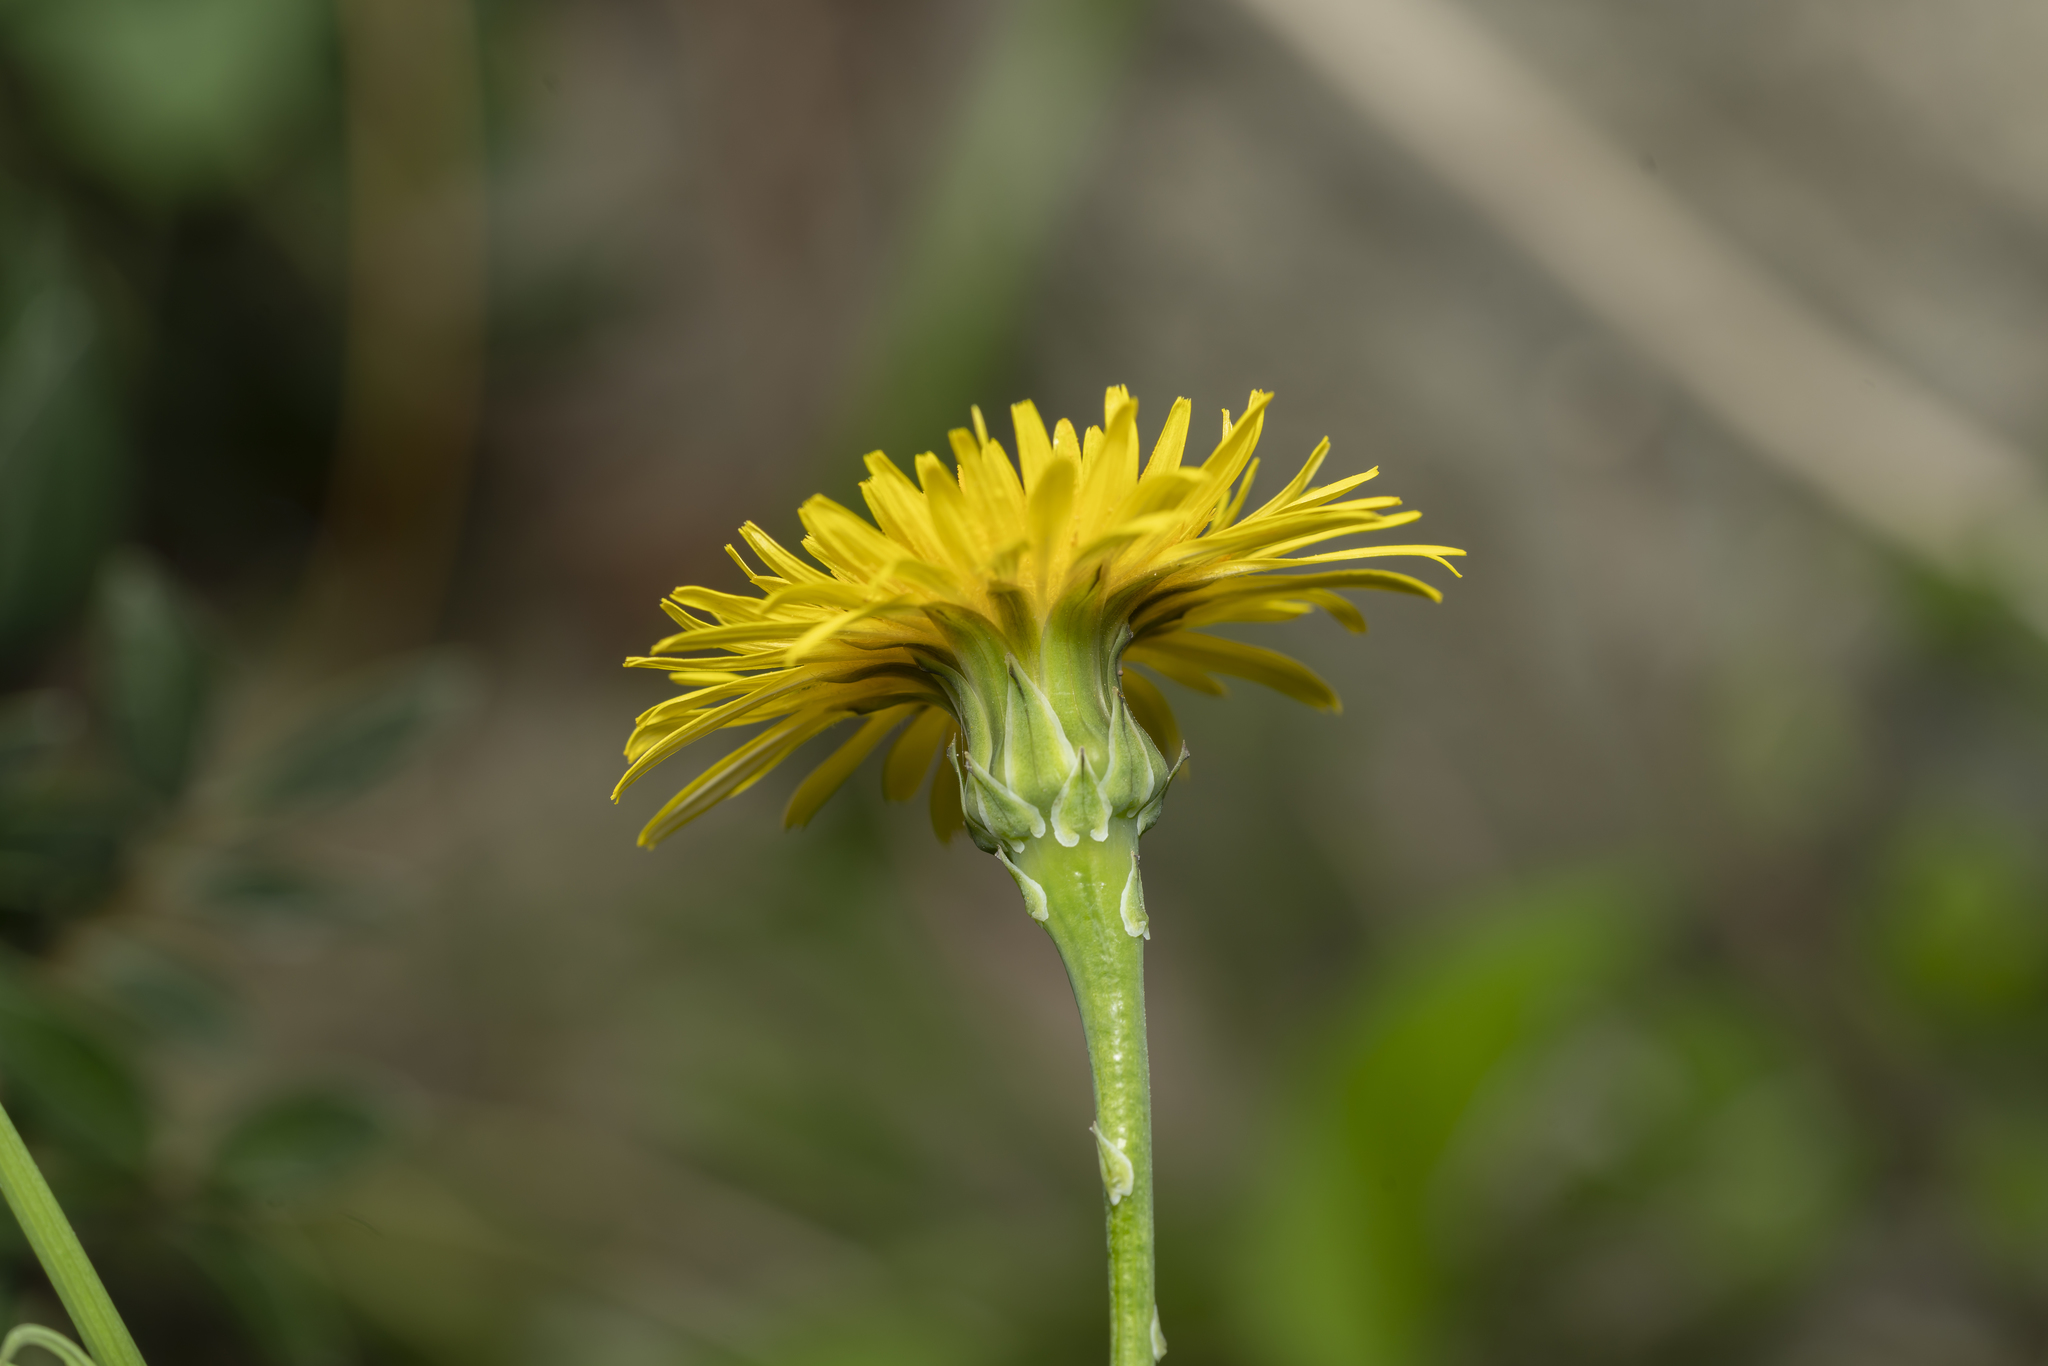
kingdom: Plantae
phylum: Tracheophyta
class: Magnoliopsida
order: Asterales
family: Asteraceae
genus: Reichardia
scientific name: Reichardia picroides
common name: Common brighteyes
